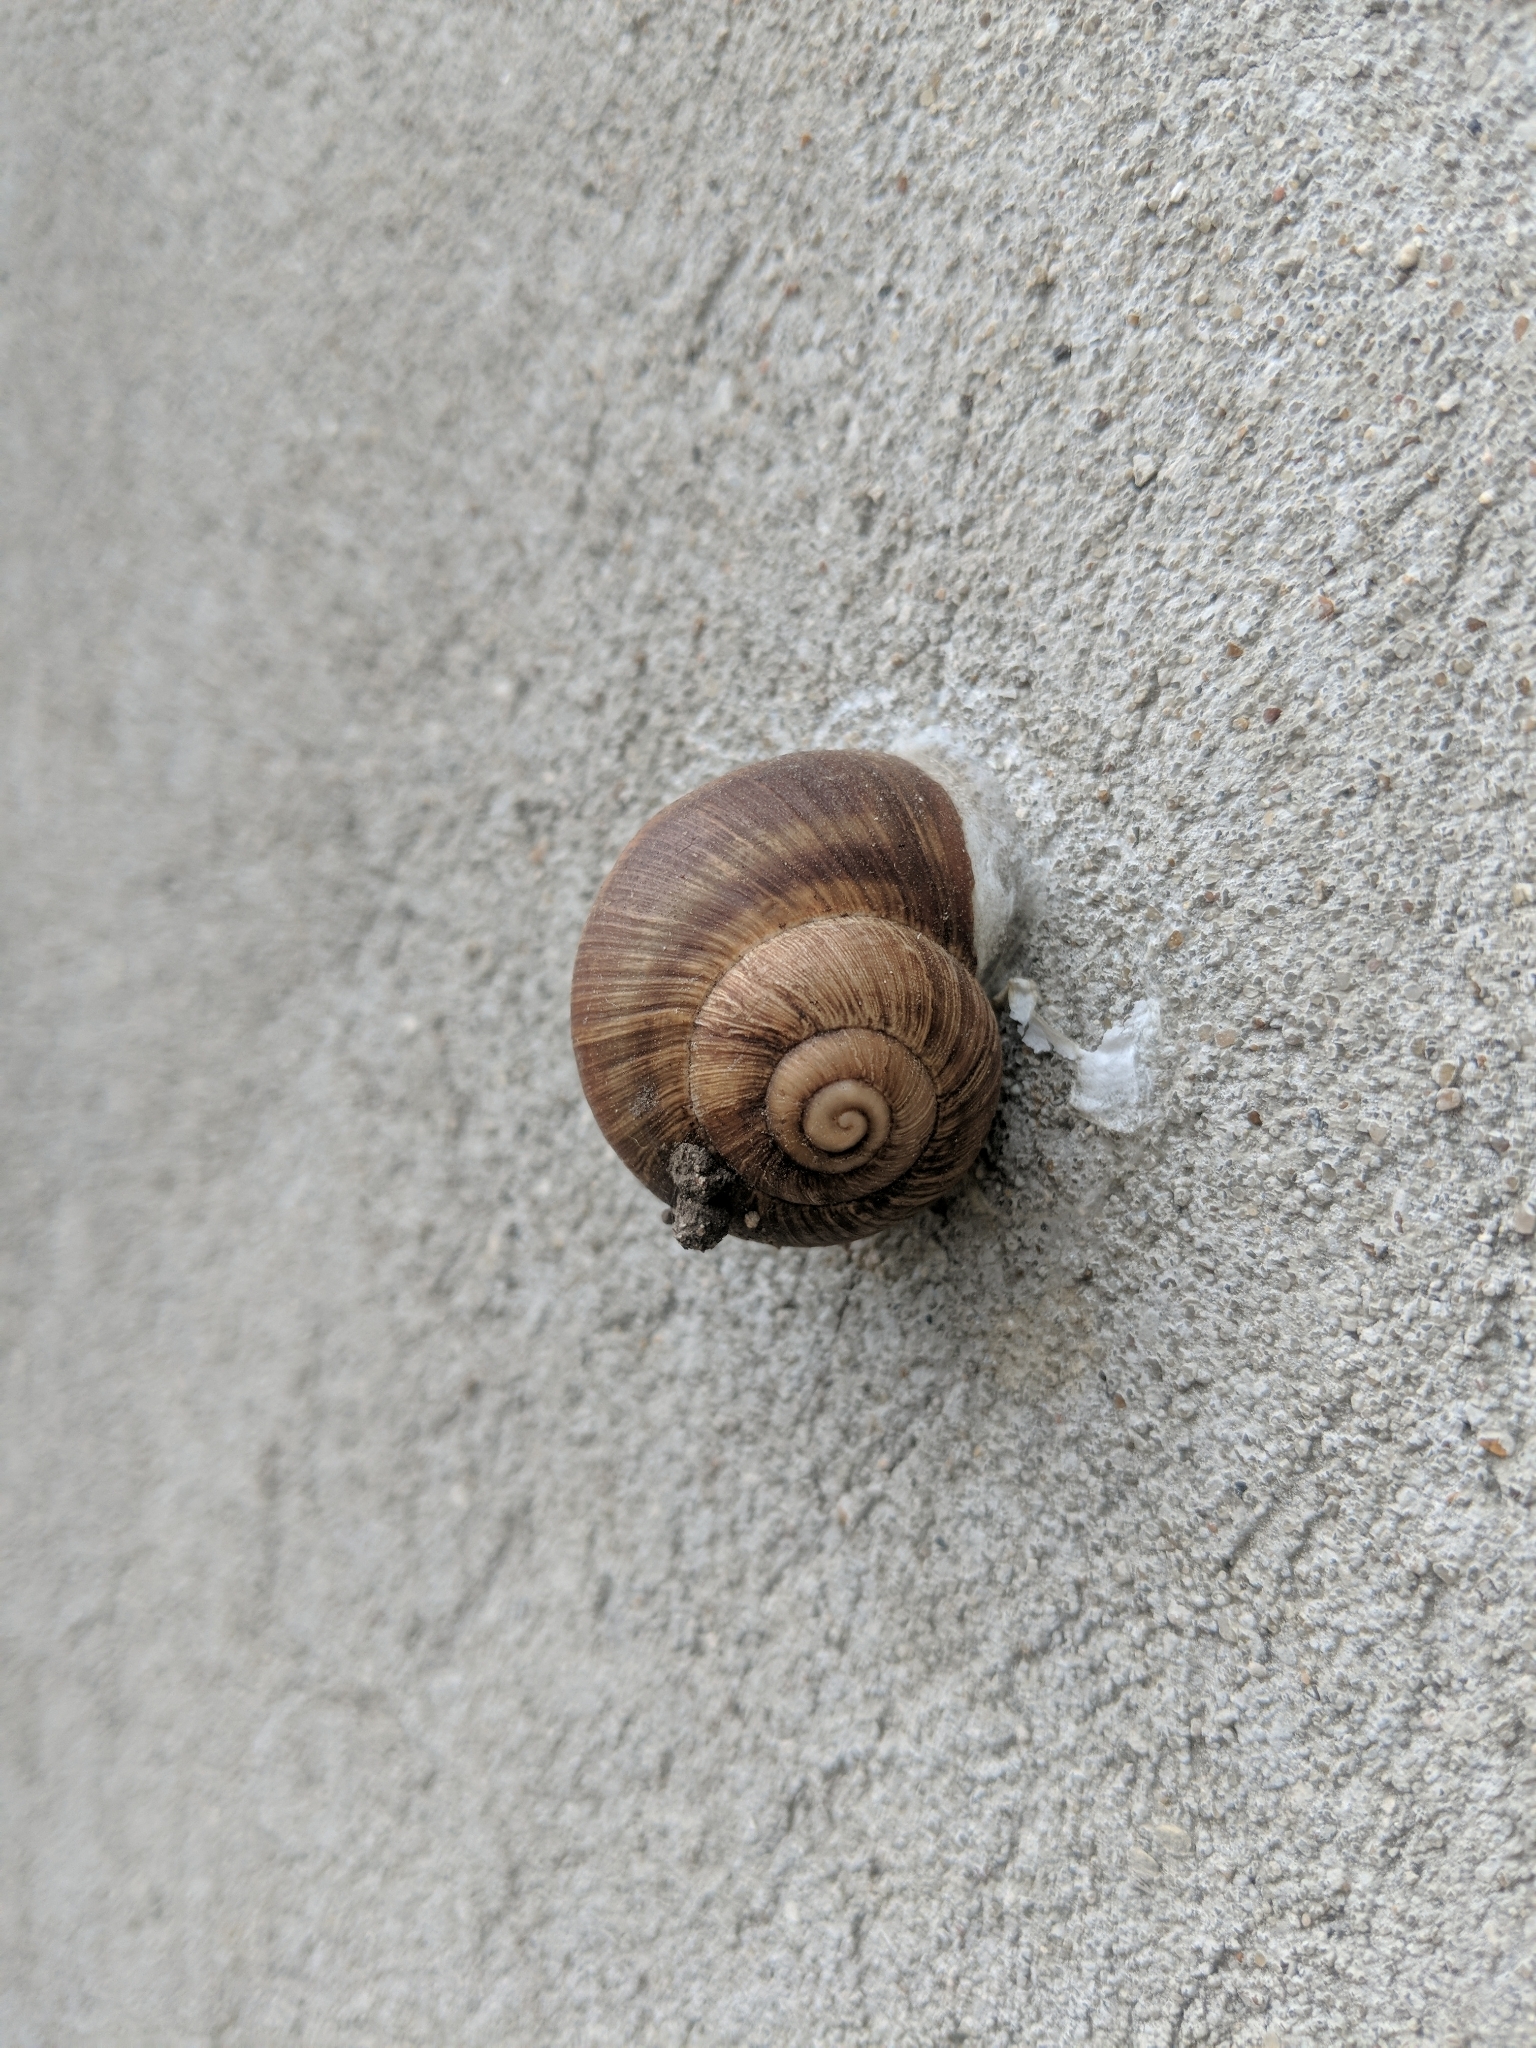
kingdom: Animalia
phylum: Mollusca
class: Gastropoda
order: Stylommatophora
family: Helicidae
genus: Helix
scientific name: Helix pomatia
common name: Roman snail
